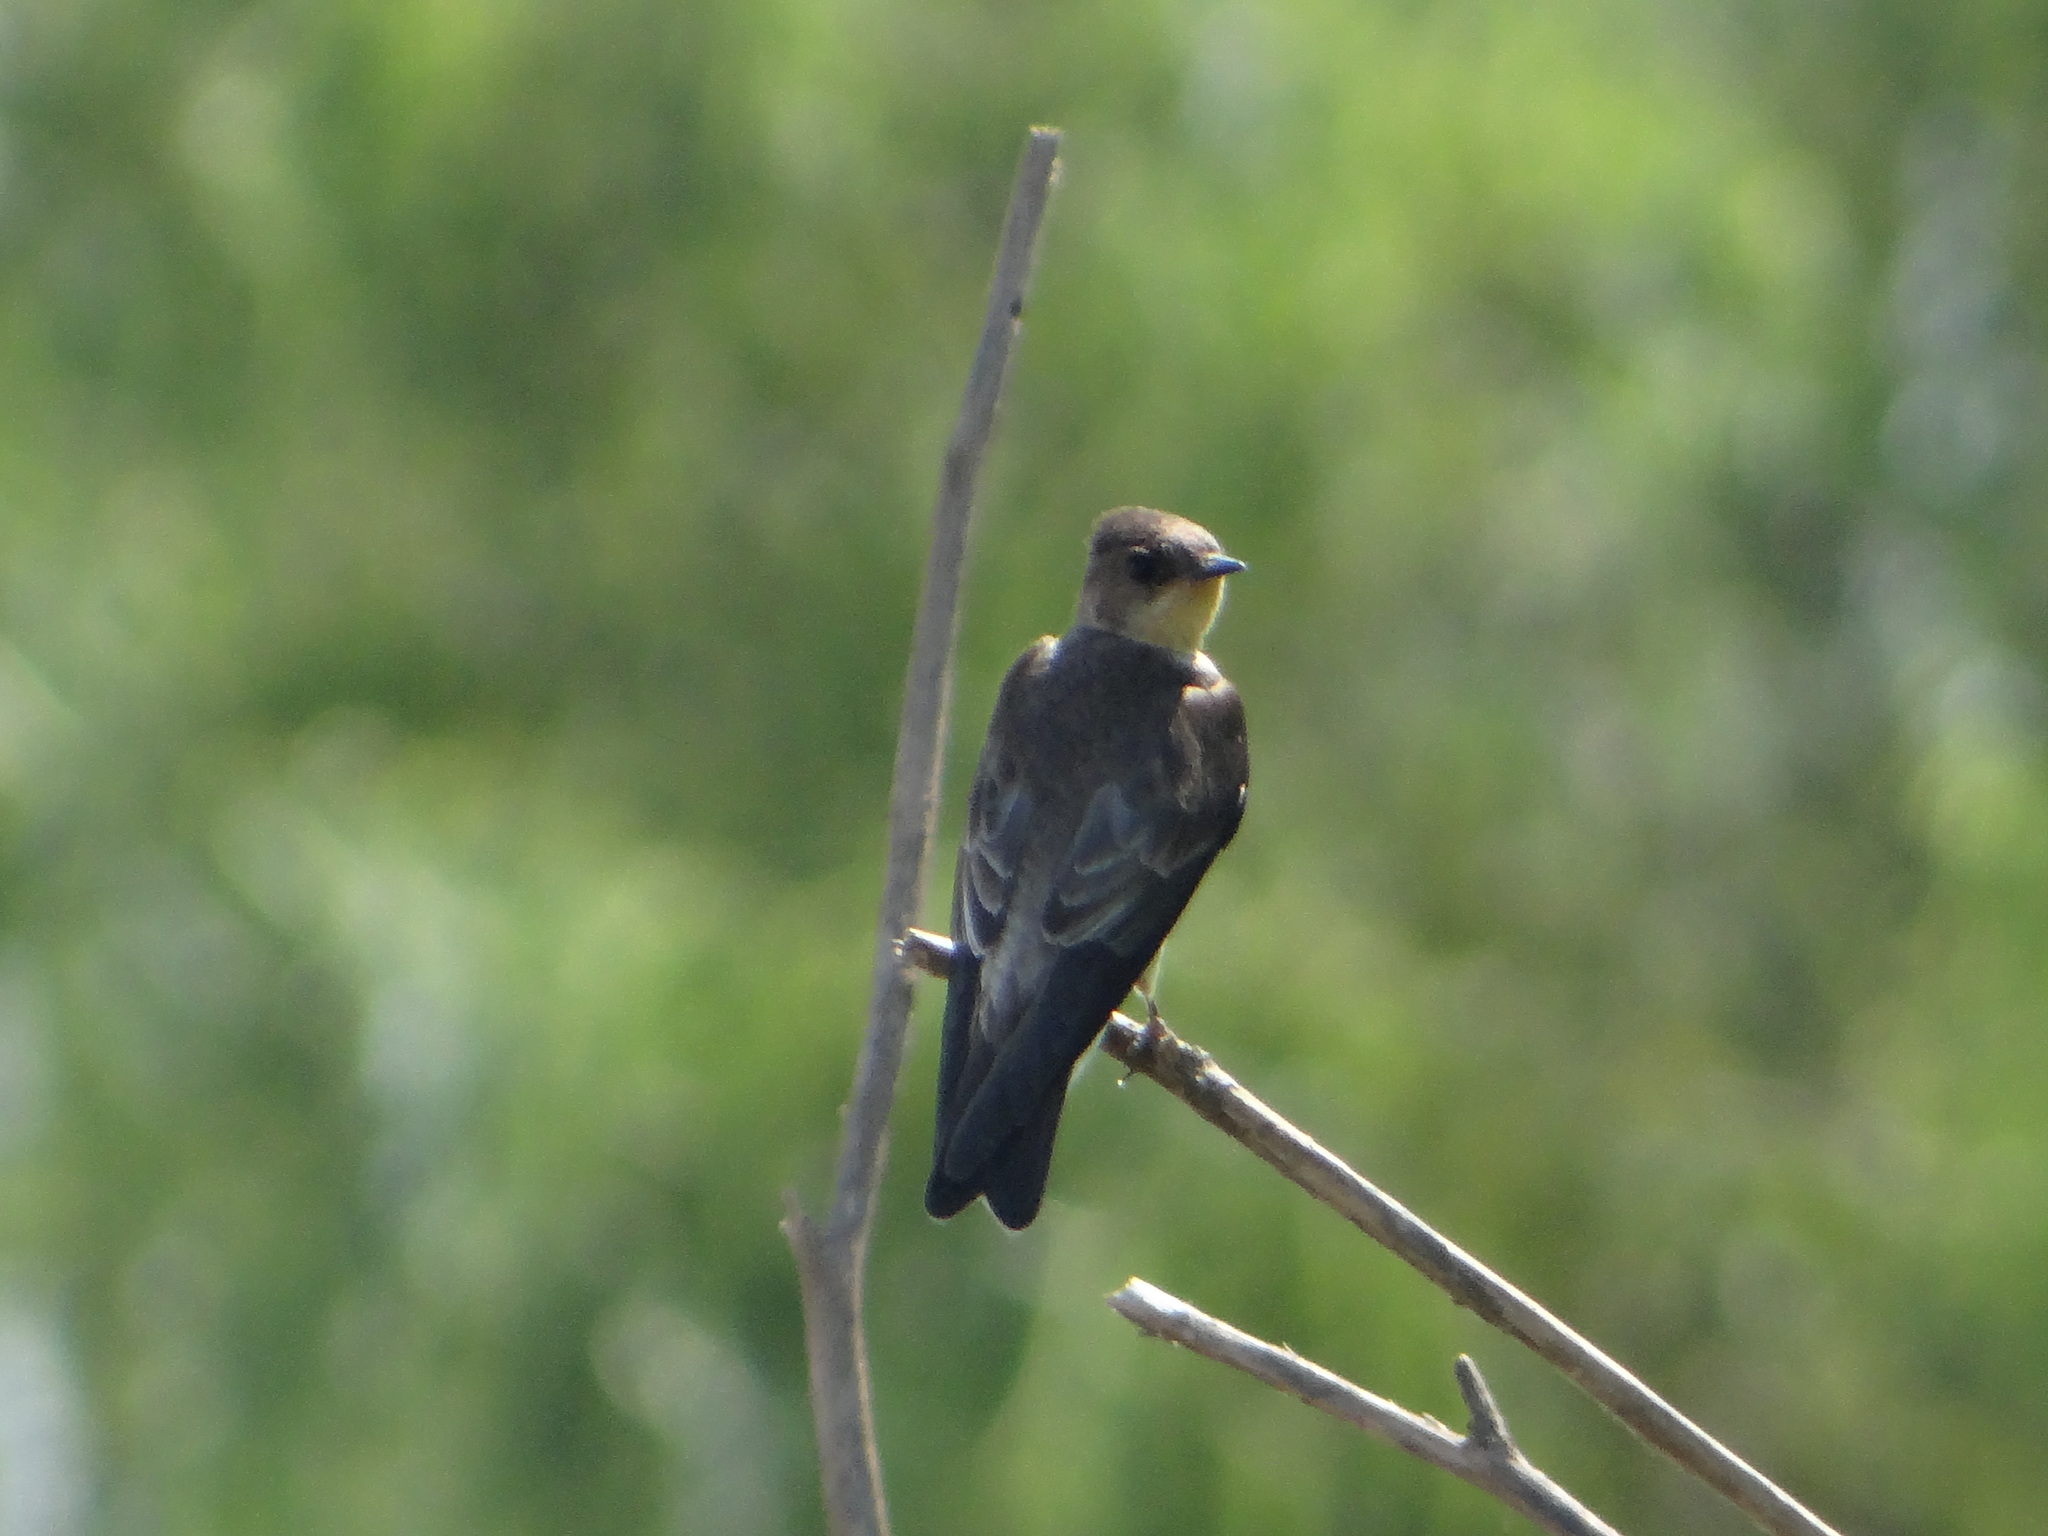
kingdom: Animalia
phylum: Chordata
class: Aves
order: Passeriformes
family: Hirundinidae
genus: Stelgidopteryx
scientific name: Stelgidopteryx ruficollis
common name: Southern rough-winged swallow
